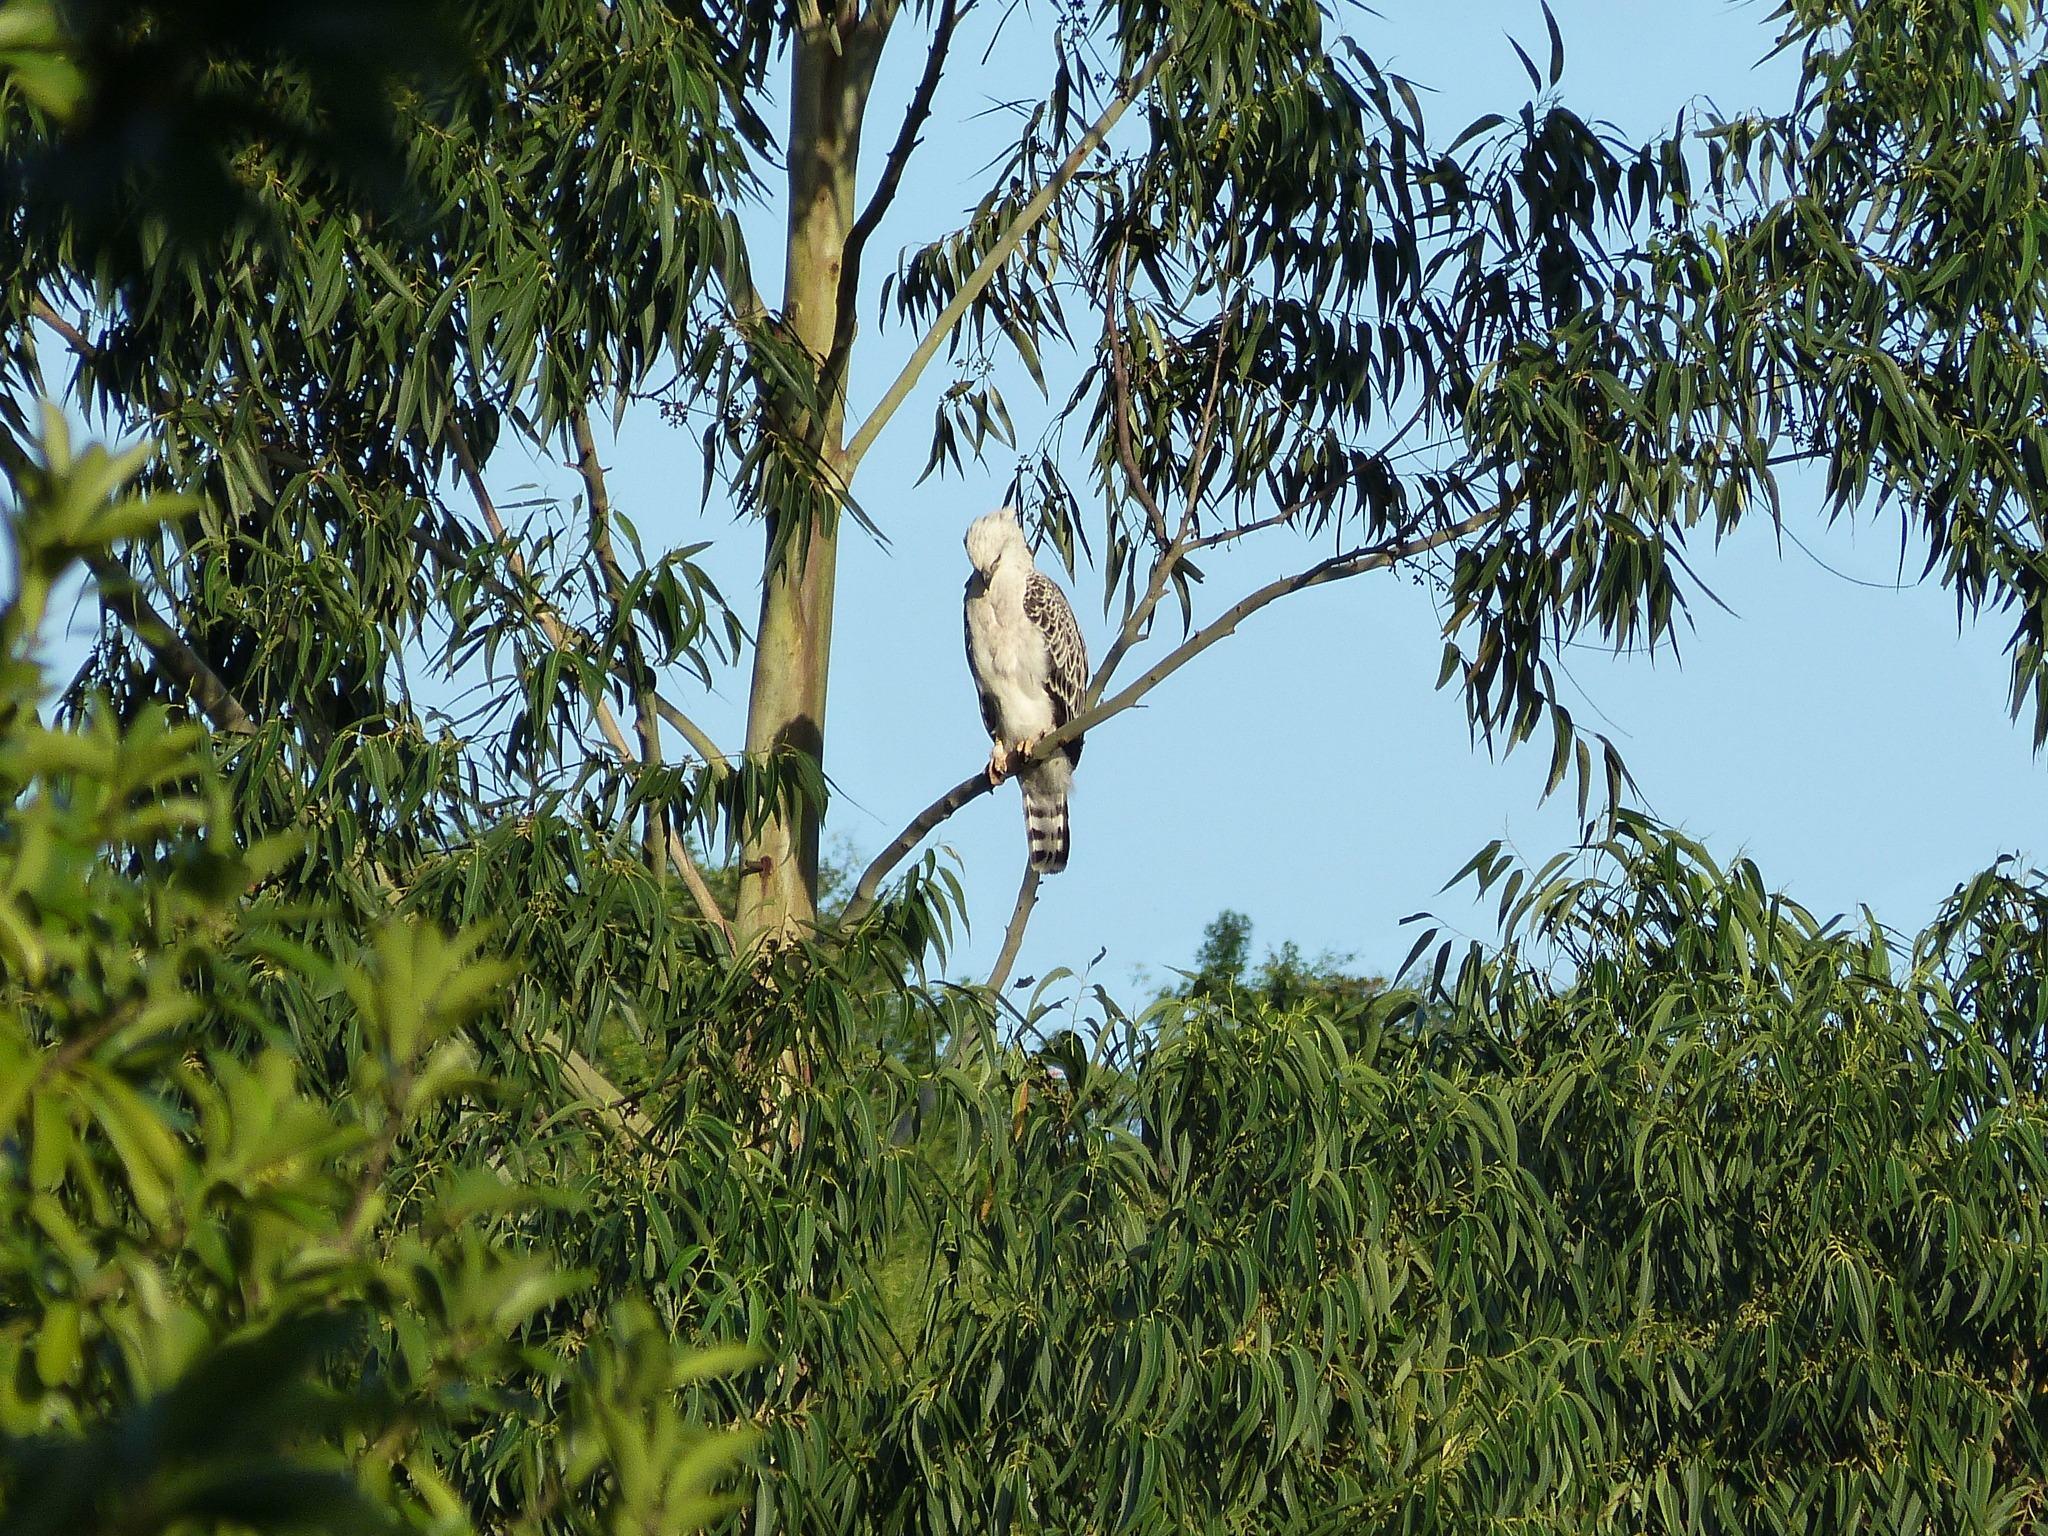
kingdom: Animalia
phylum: Chordata
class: Aves
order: Accipitriformes
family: Accipitridae
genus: Stephanoaetus
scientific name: Stephanoaetus coronatus
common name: Crowned eagle
